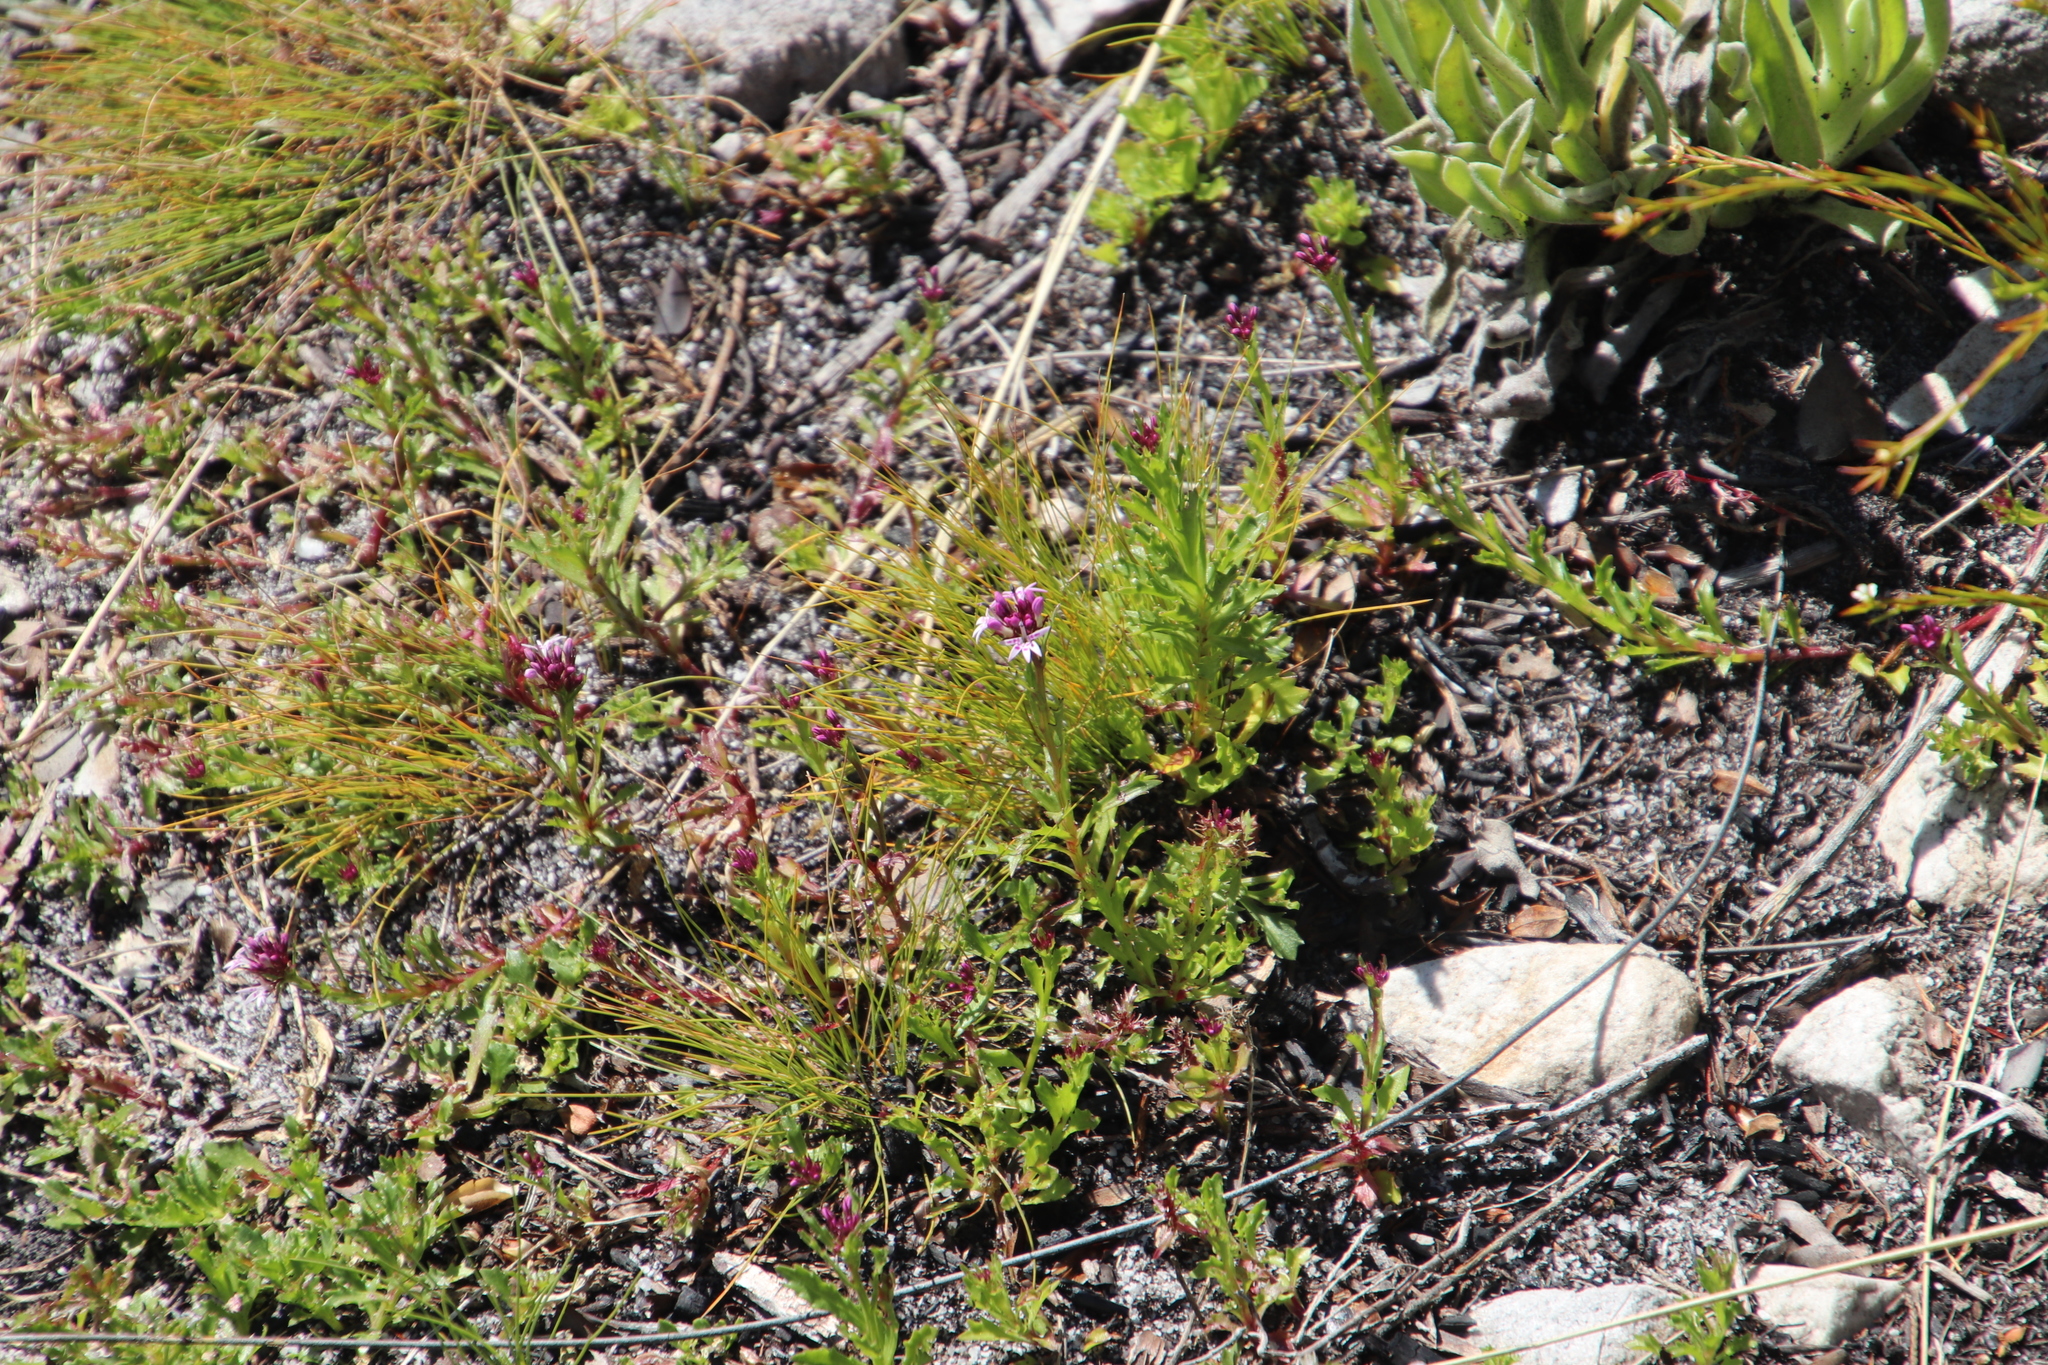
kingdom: Plantae
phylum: Tracheophyta
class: Magnoliopsida
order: Asterales
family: Campanulaceae
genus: Lobelia
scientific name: Lobelia jasionoides
